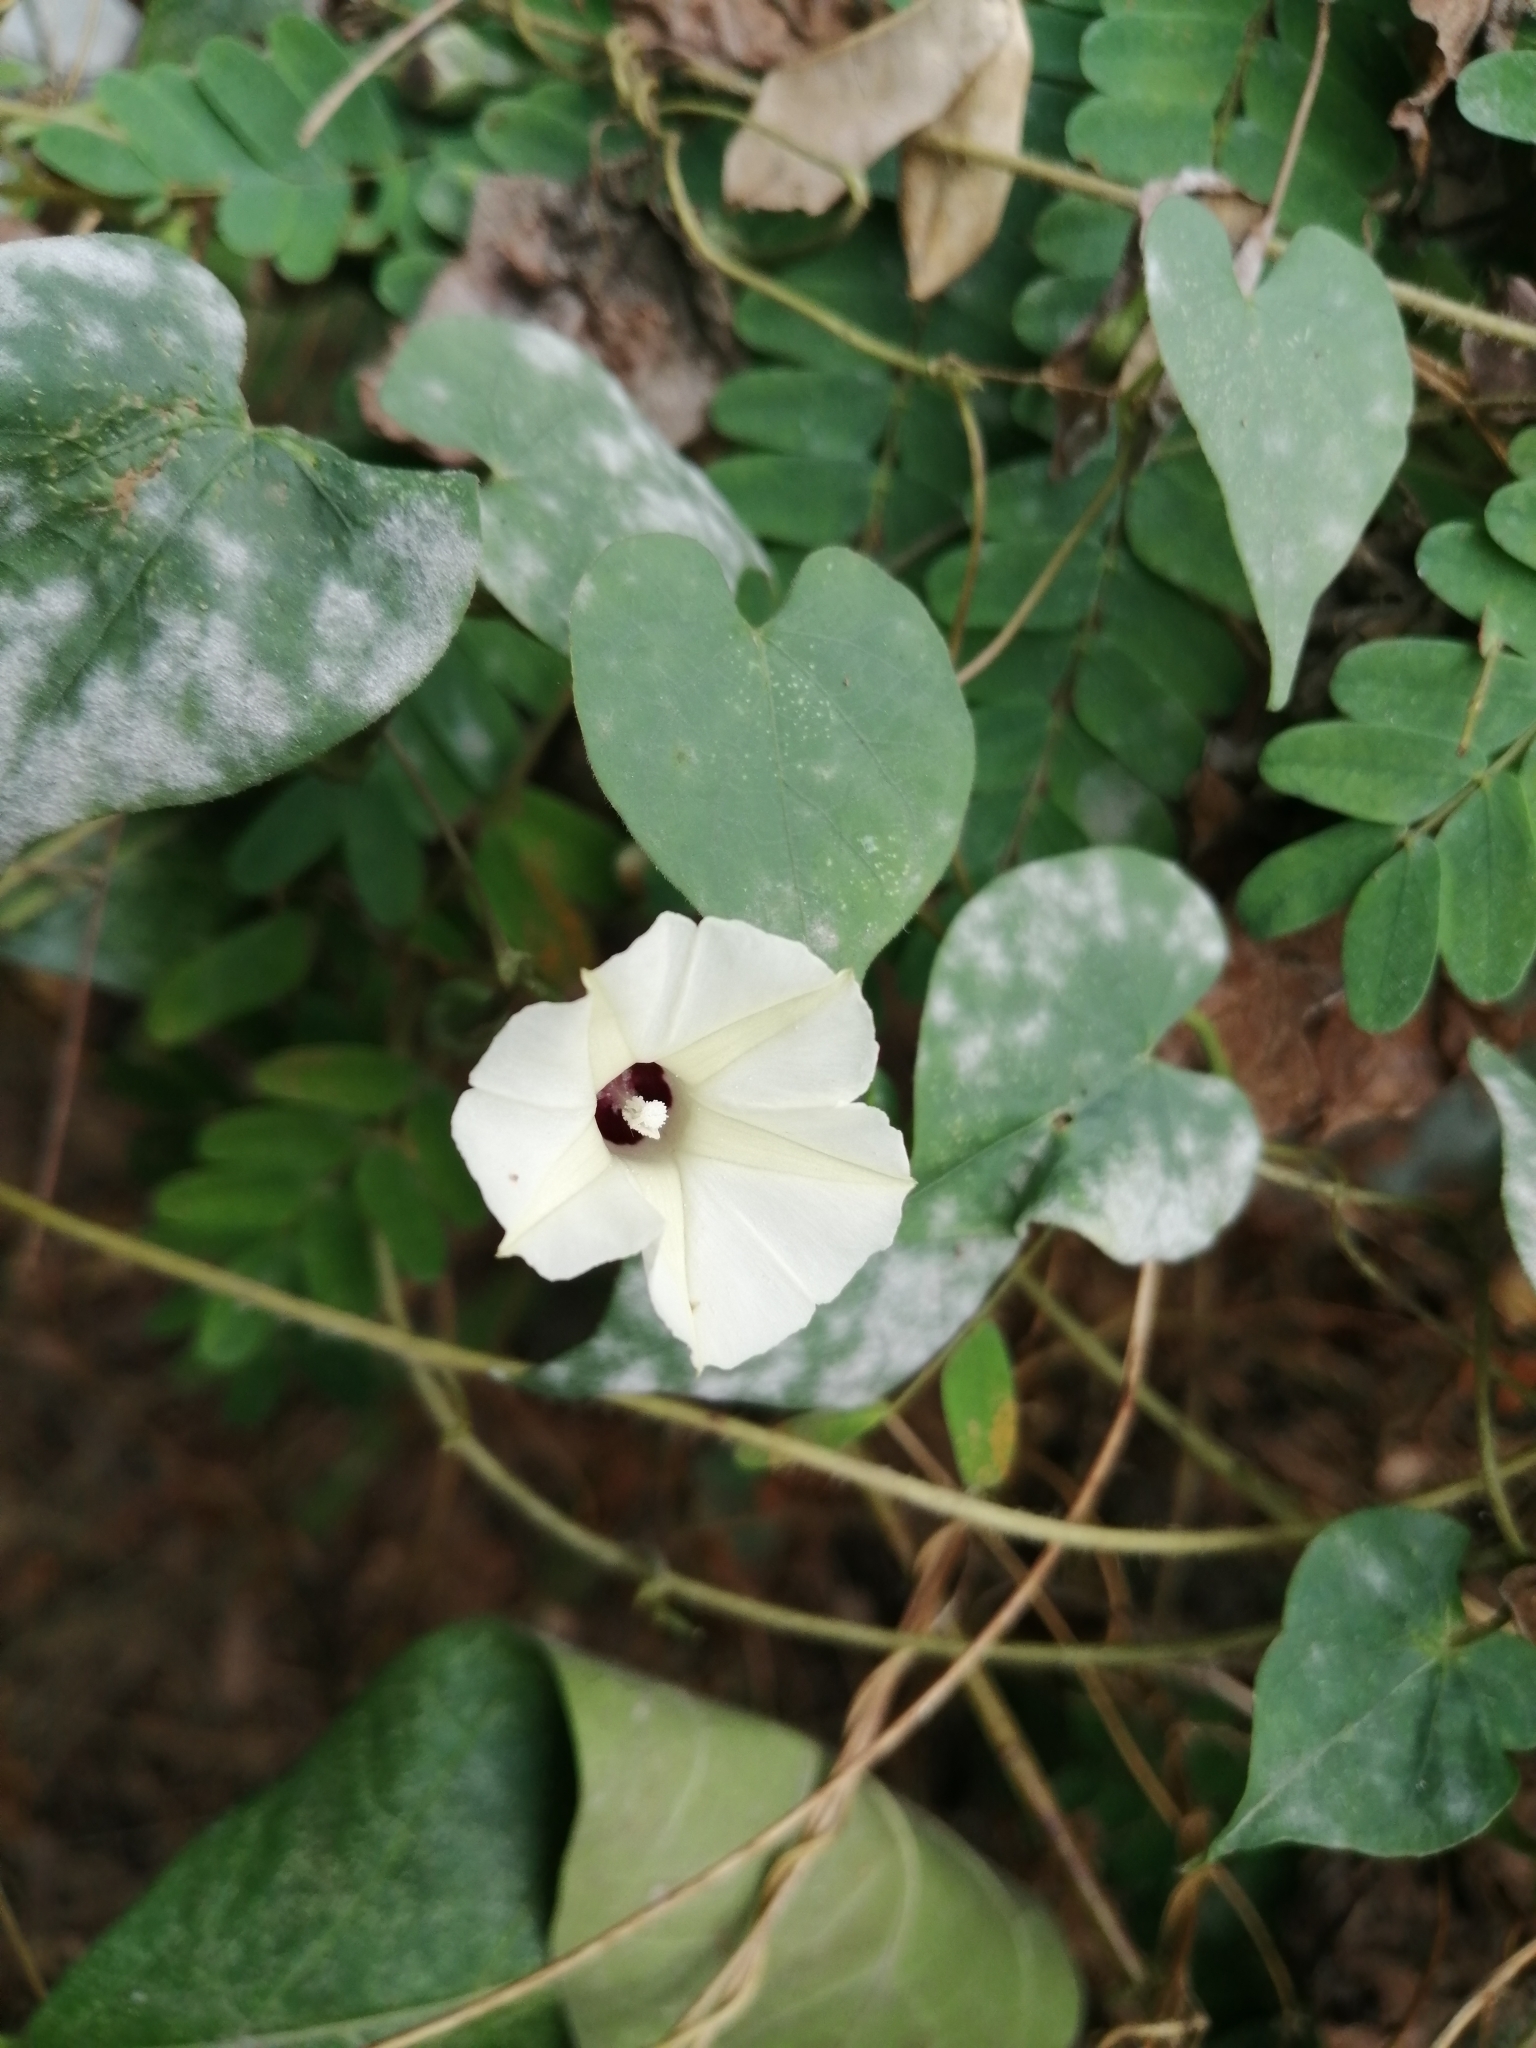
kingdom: Plantae
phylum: Tracheophyta
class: Magnoliopsida
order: Solanales
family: Convolvulaceae
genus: Ipomoea
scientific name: Ipomoea obscura
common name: Obscure morning-glory
